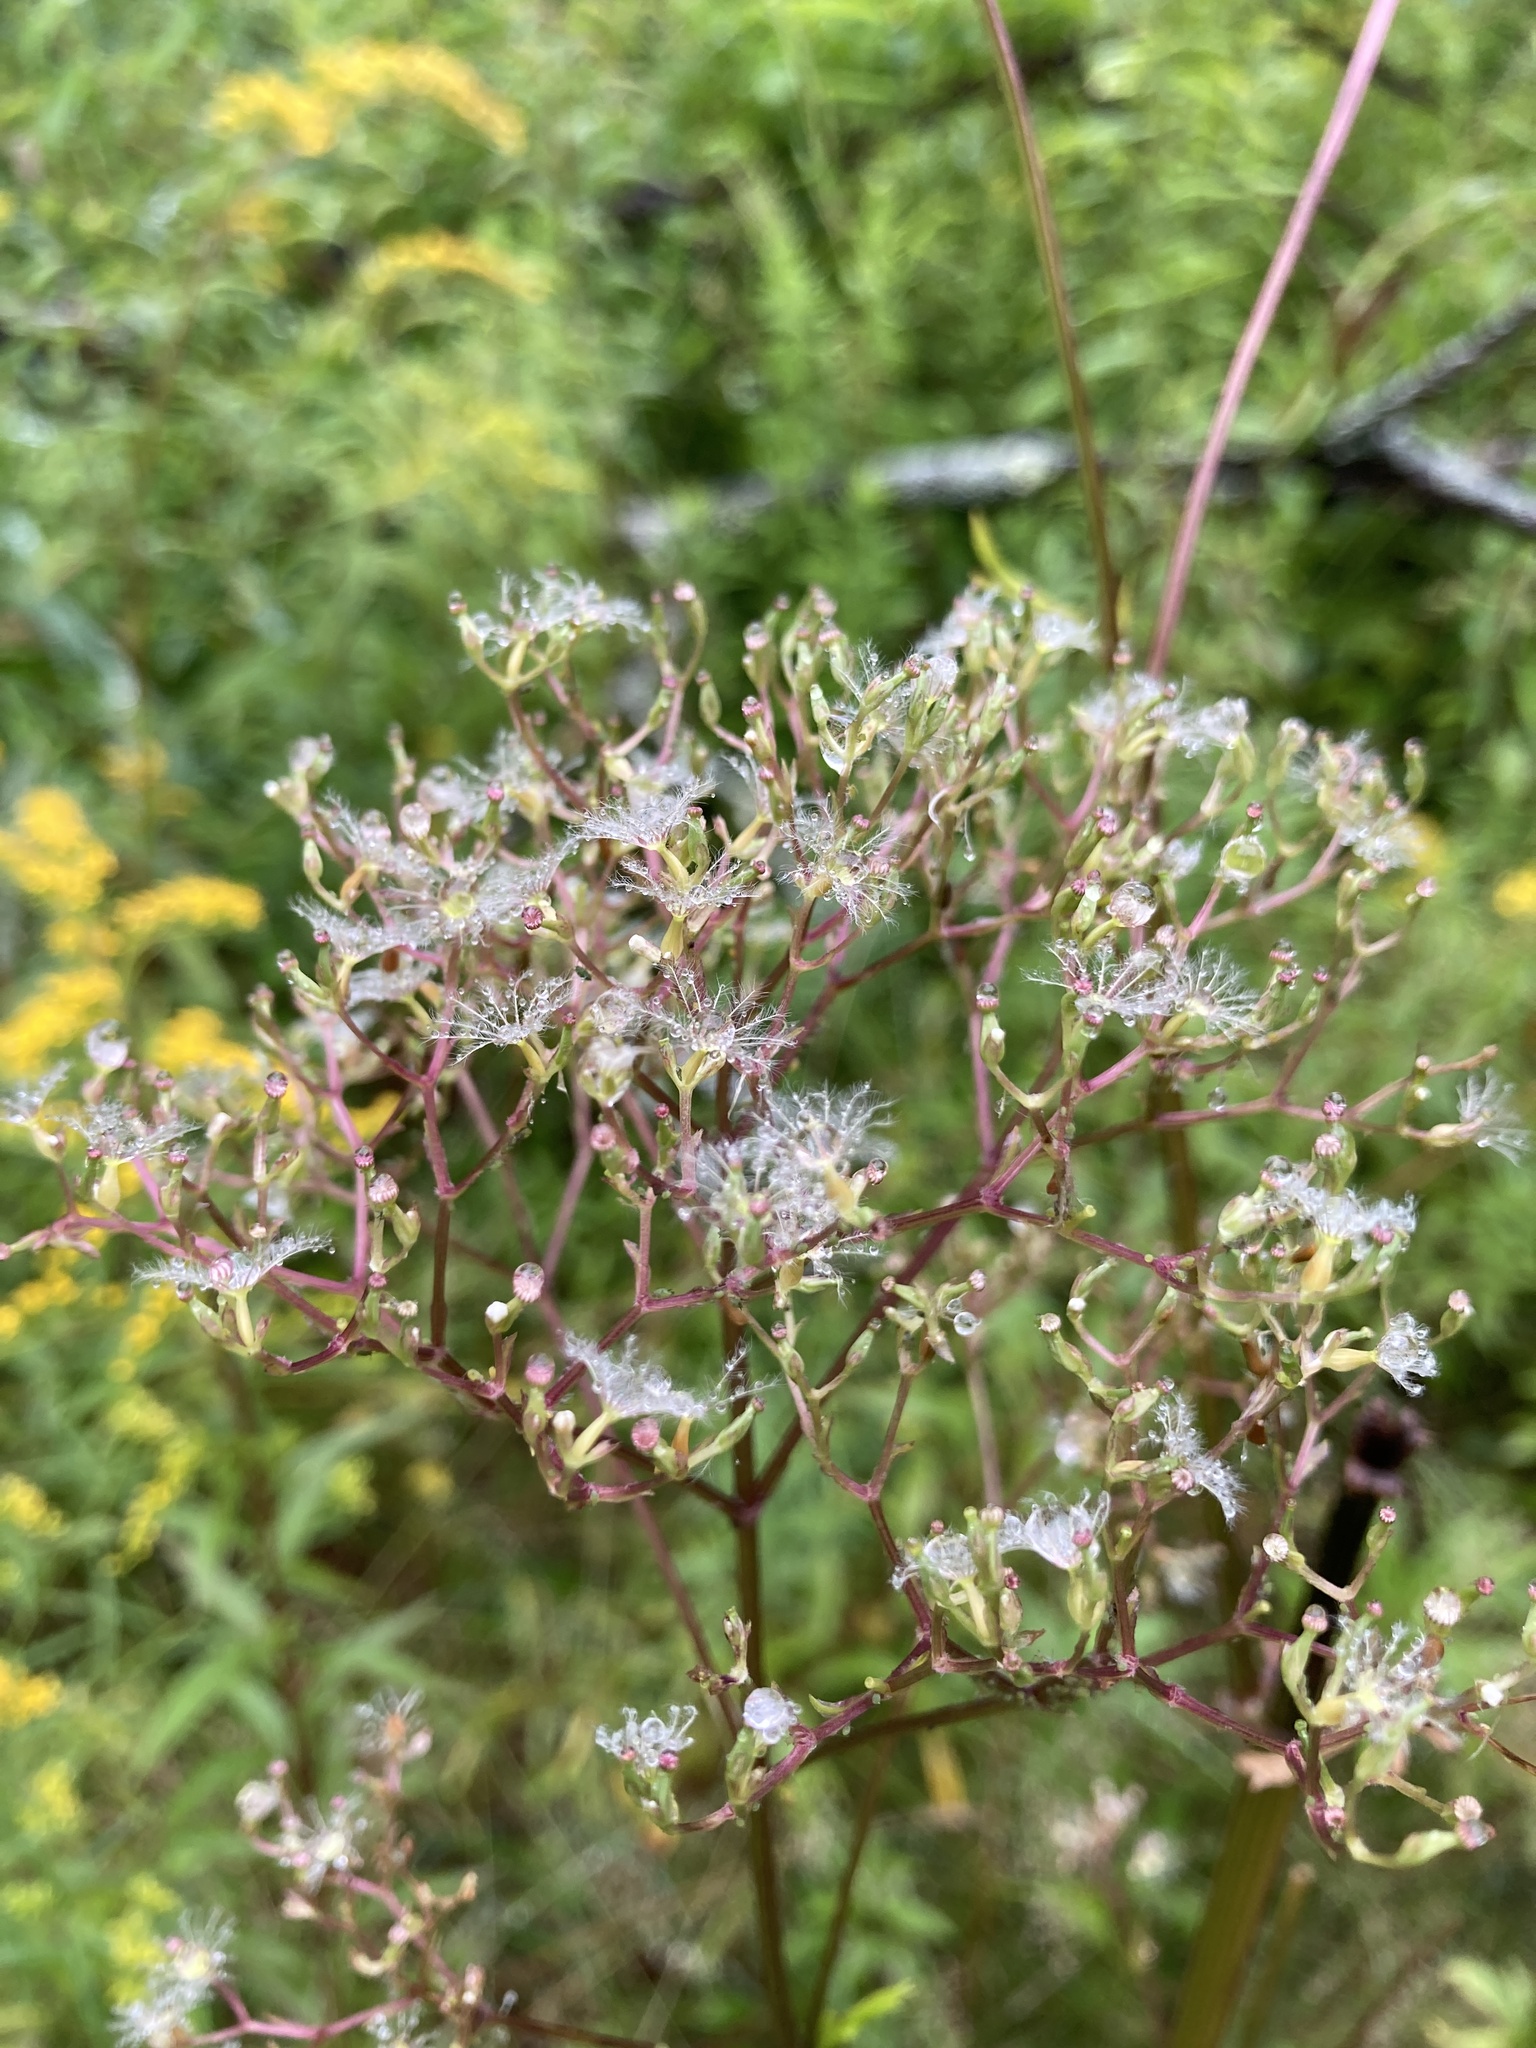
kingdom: Plantae
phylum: Tracheophyta
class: Magnoliopsida
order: Dipsacales
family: Caprifoliaceae
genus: Valeriana
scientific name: Valeriana officinalis
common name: Common valerian
